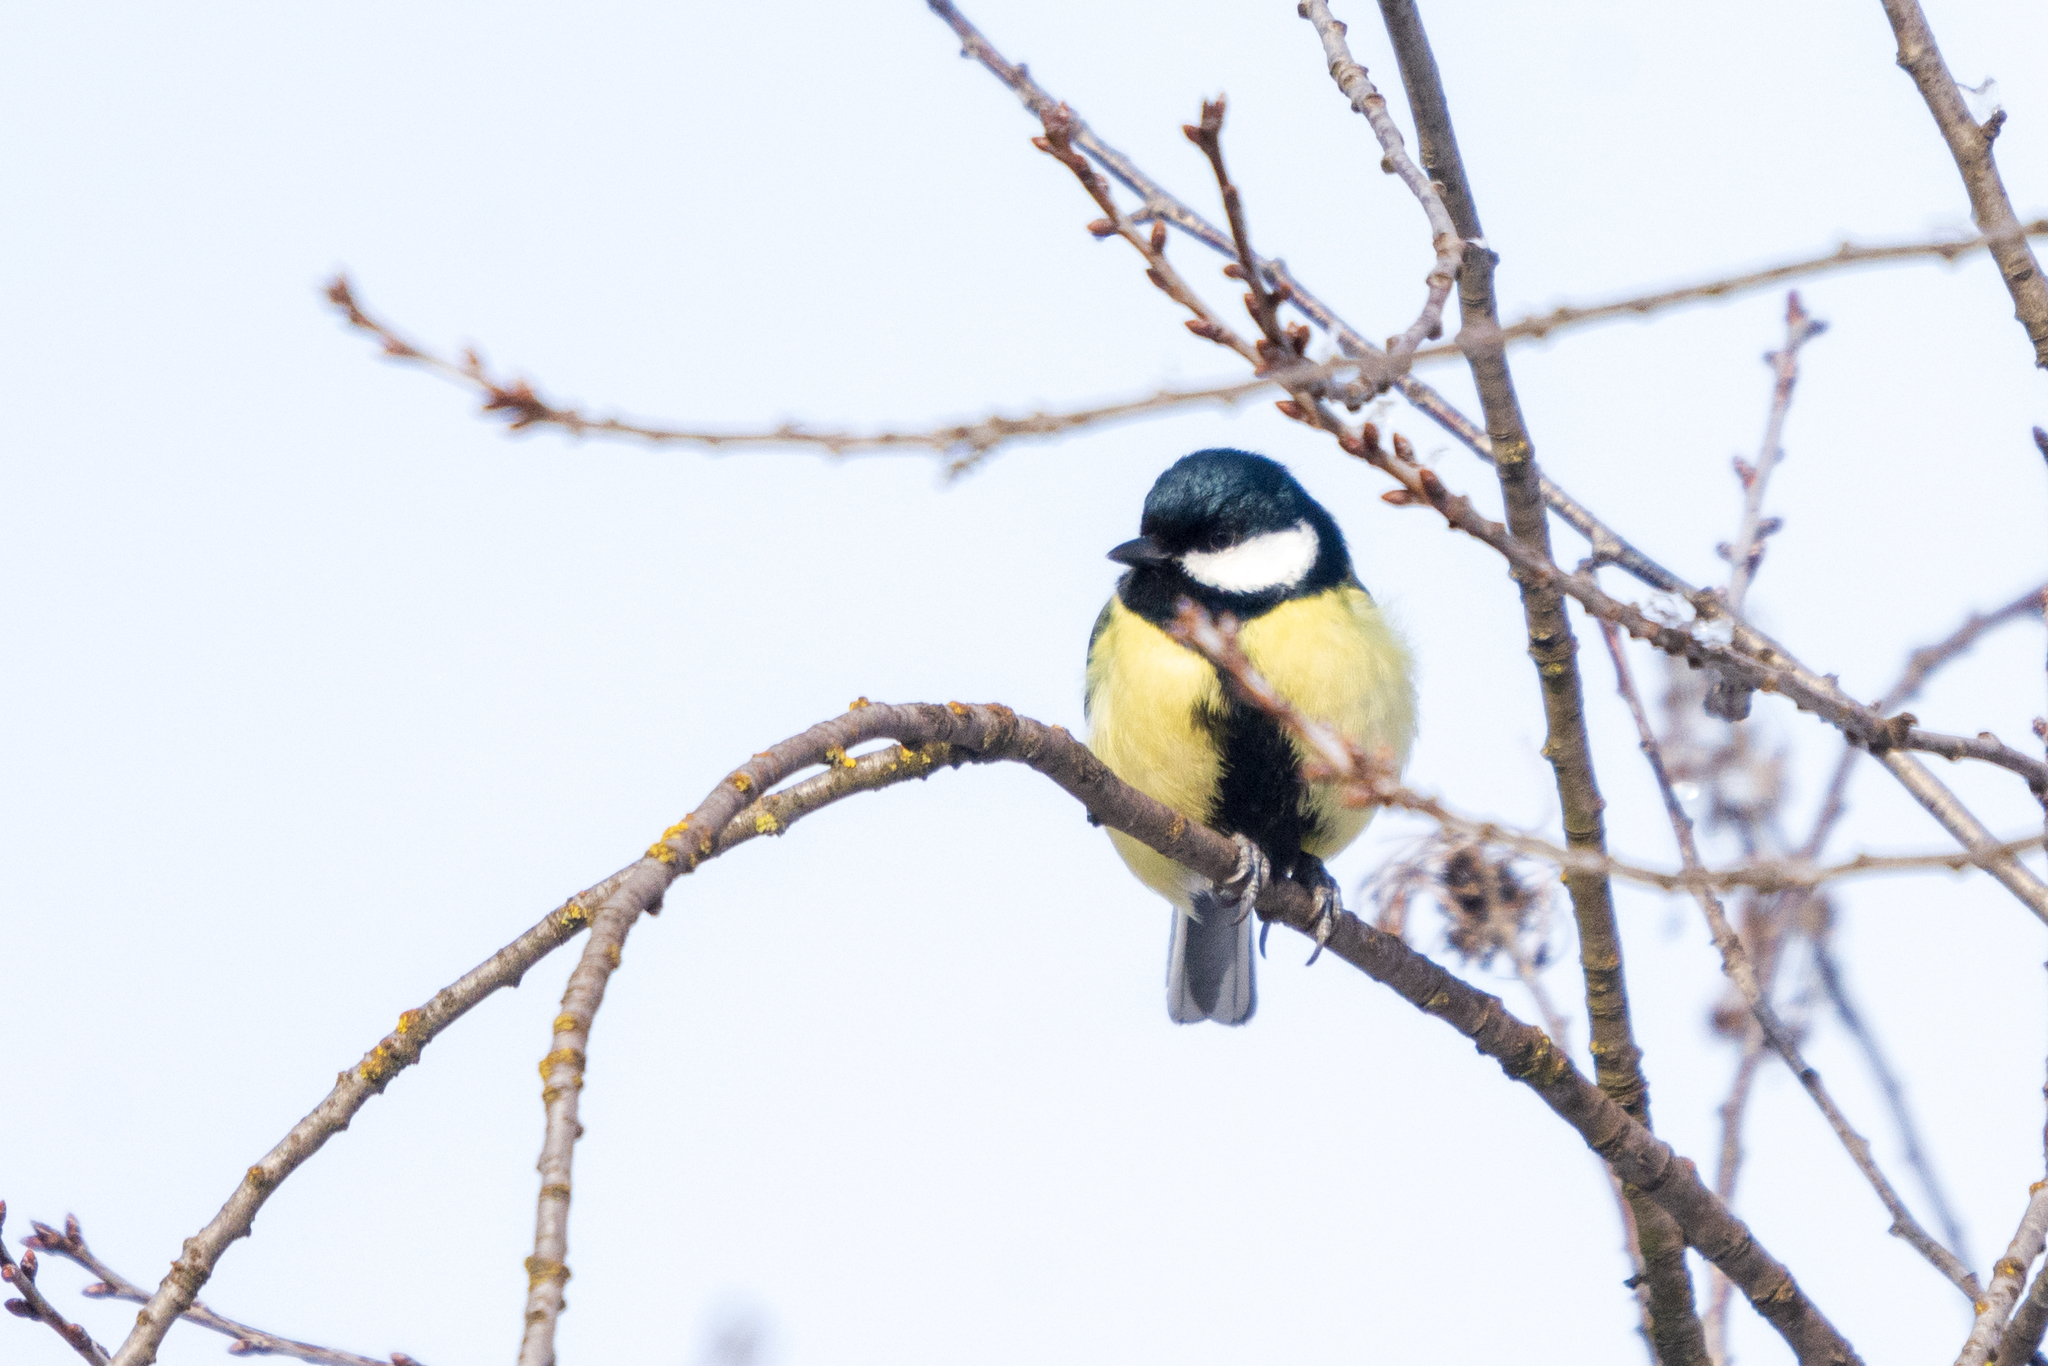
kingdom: Animalia
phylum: Chordata
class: Aves
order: Passeriformes
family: Paridae
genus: Parus
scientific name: Parus major
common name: Great tit
